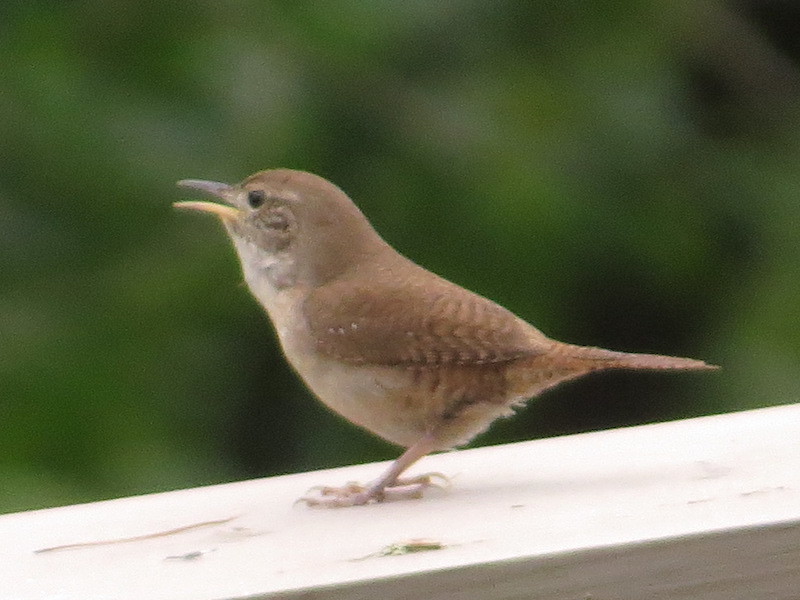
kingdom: Animalia
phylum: Chordata
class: Aves
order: Passeriformes
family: Troglodytidae
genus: Troglodytes
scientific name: Troglodytes aedon
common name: House wren
